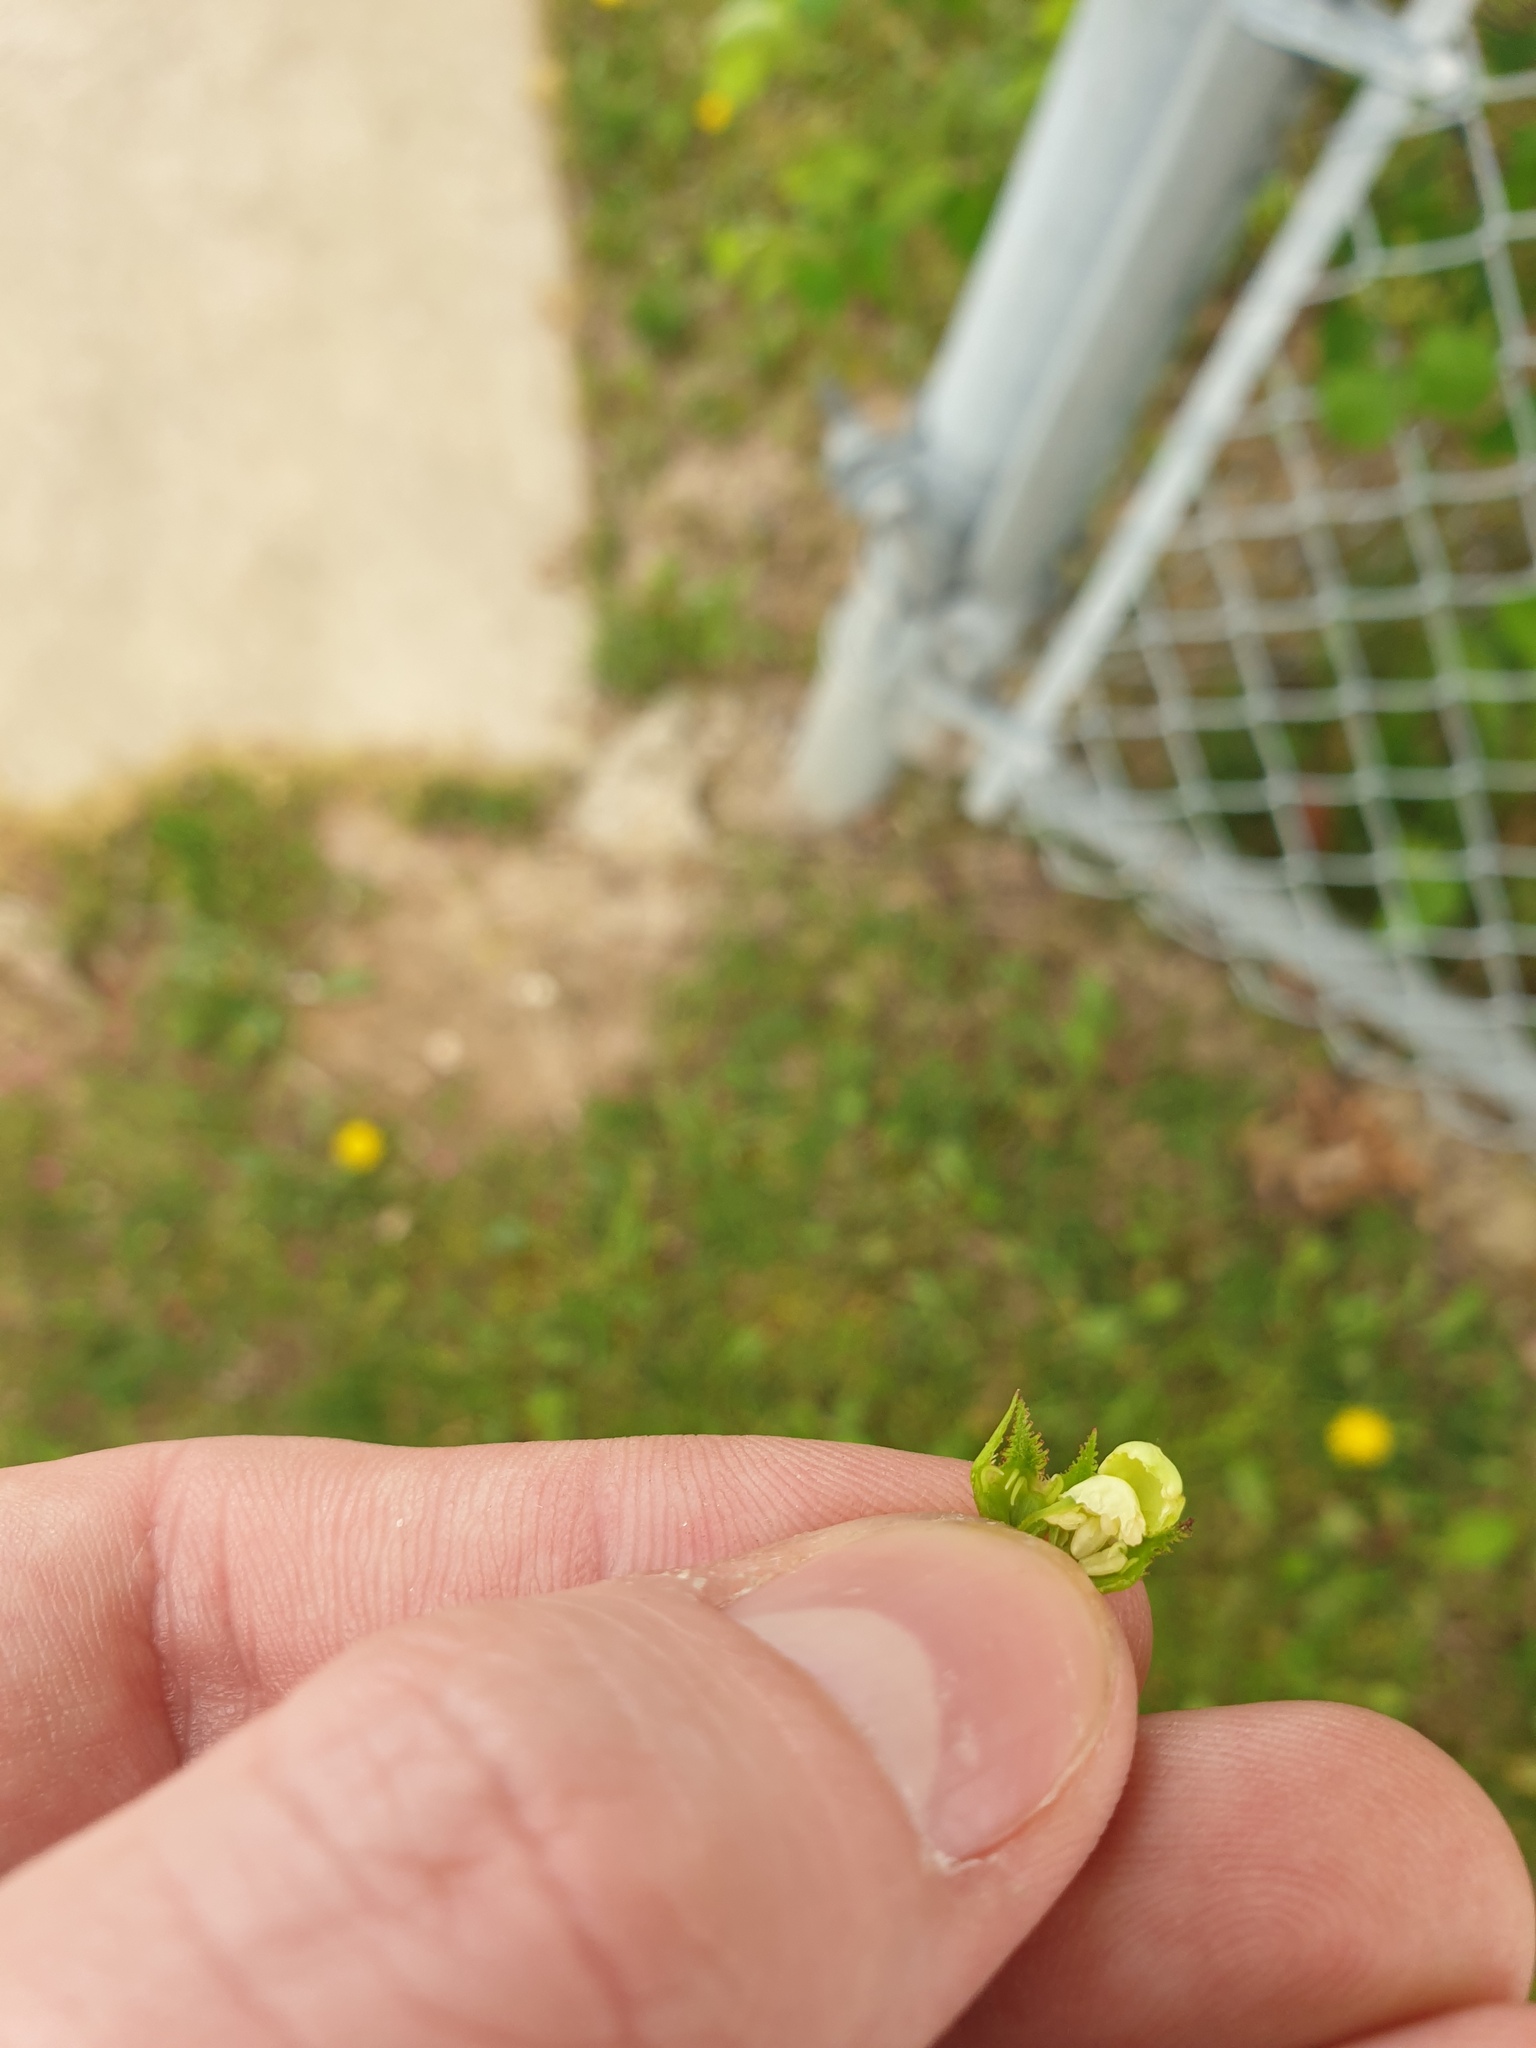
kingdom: Plantae
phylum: Tracheophyta
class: Magnoliopsida
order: Rosales
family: Rosaceae
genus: Crataegus
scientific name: Crataegus macracantha
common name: Large-thorn hawthorn
